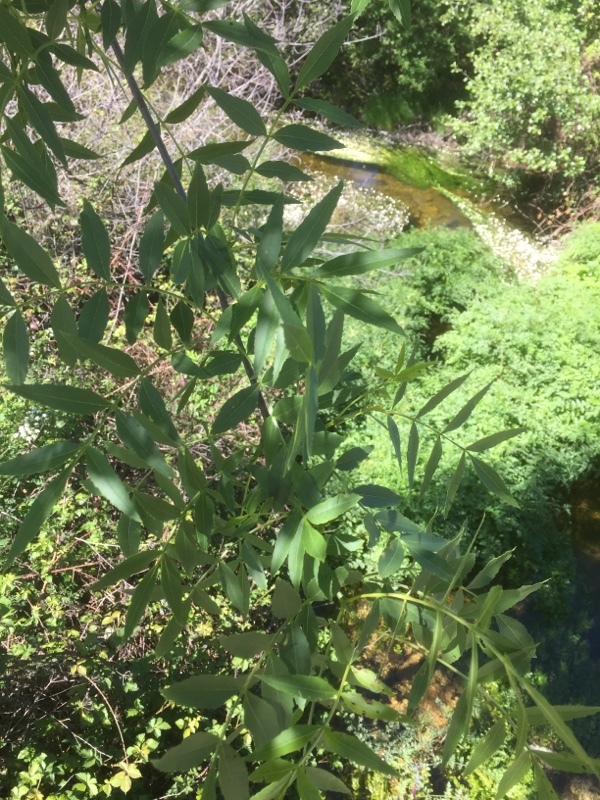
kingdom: Plantae
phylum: Tracheophyta
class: Magnoliopsida
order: Lamiales
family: Oleaceae
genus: Fraxinus
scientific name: Fraxinus angustifolia
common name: Narrow-leafed ash
